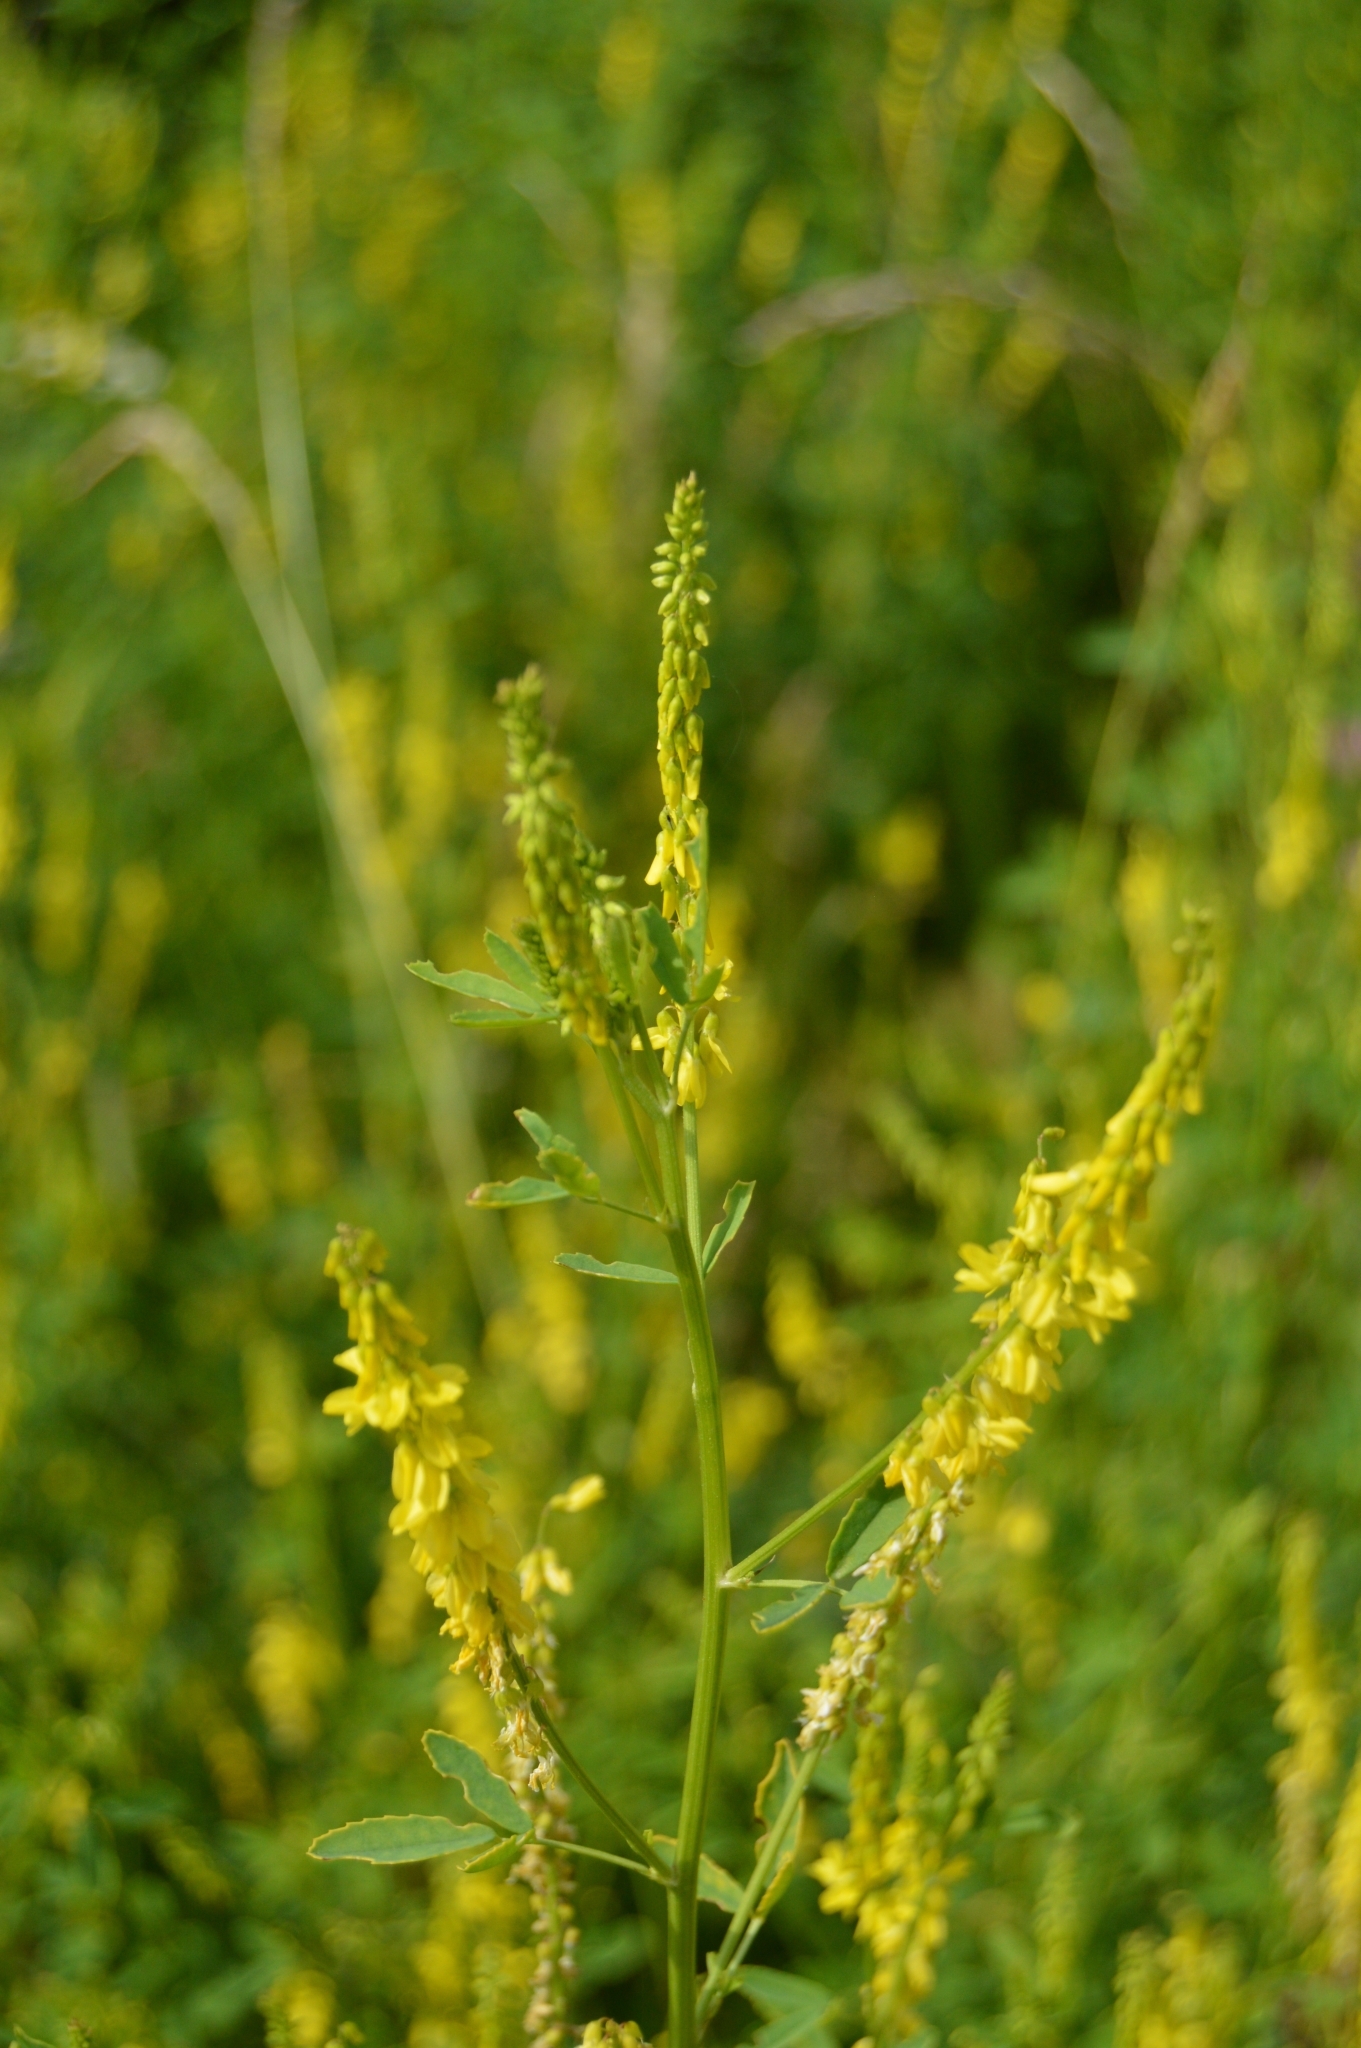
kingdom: Plantae
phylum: Tracheophyta
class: Magnoliopsida
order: Fabales
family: Fabaceae
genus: Melilotus
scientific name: Melilotus officinalis
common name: Sweetclover
